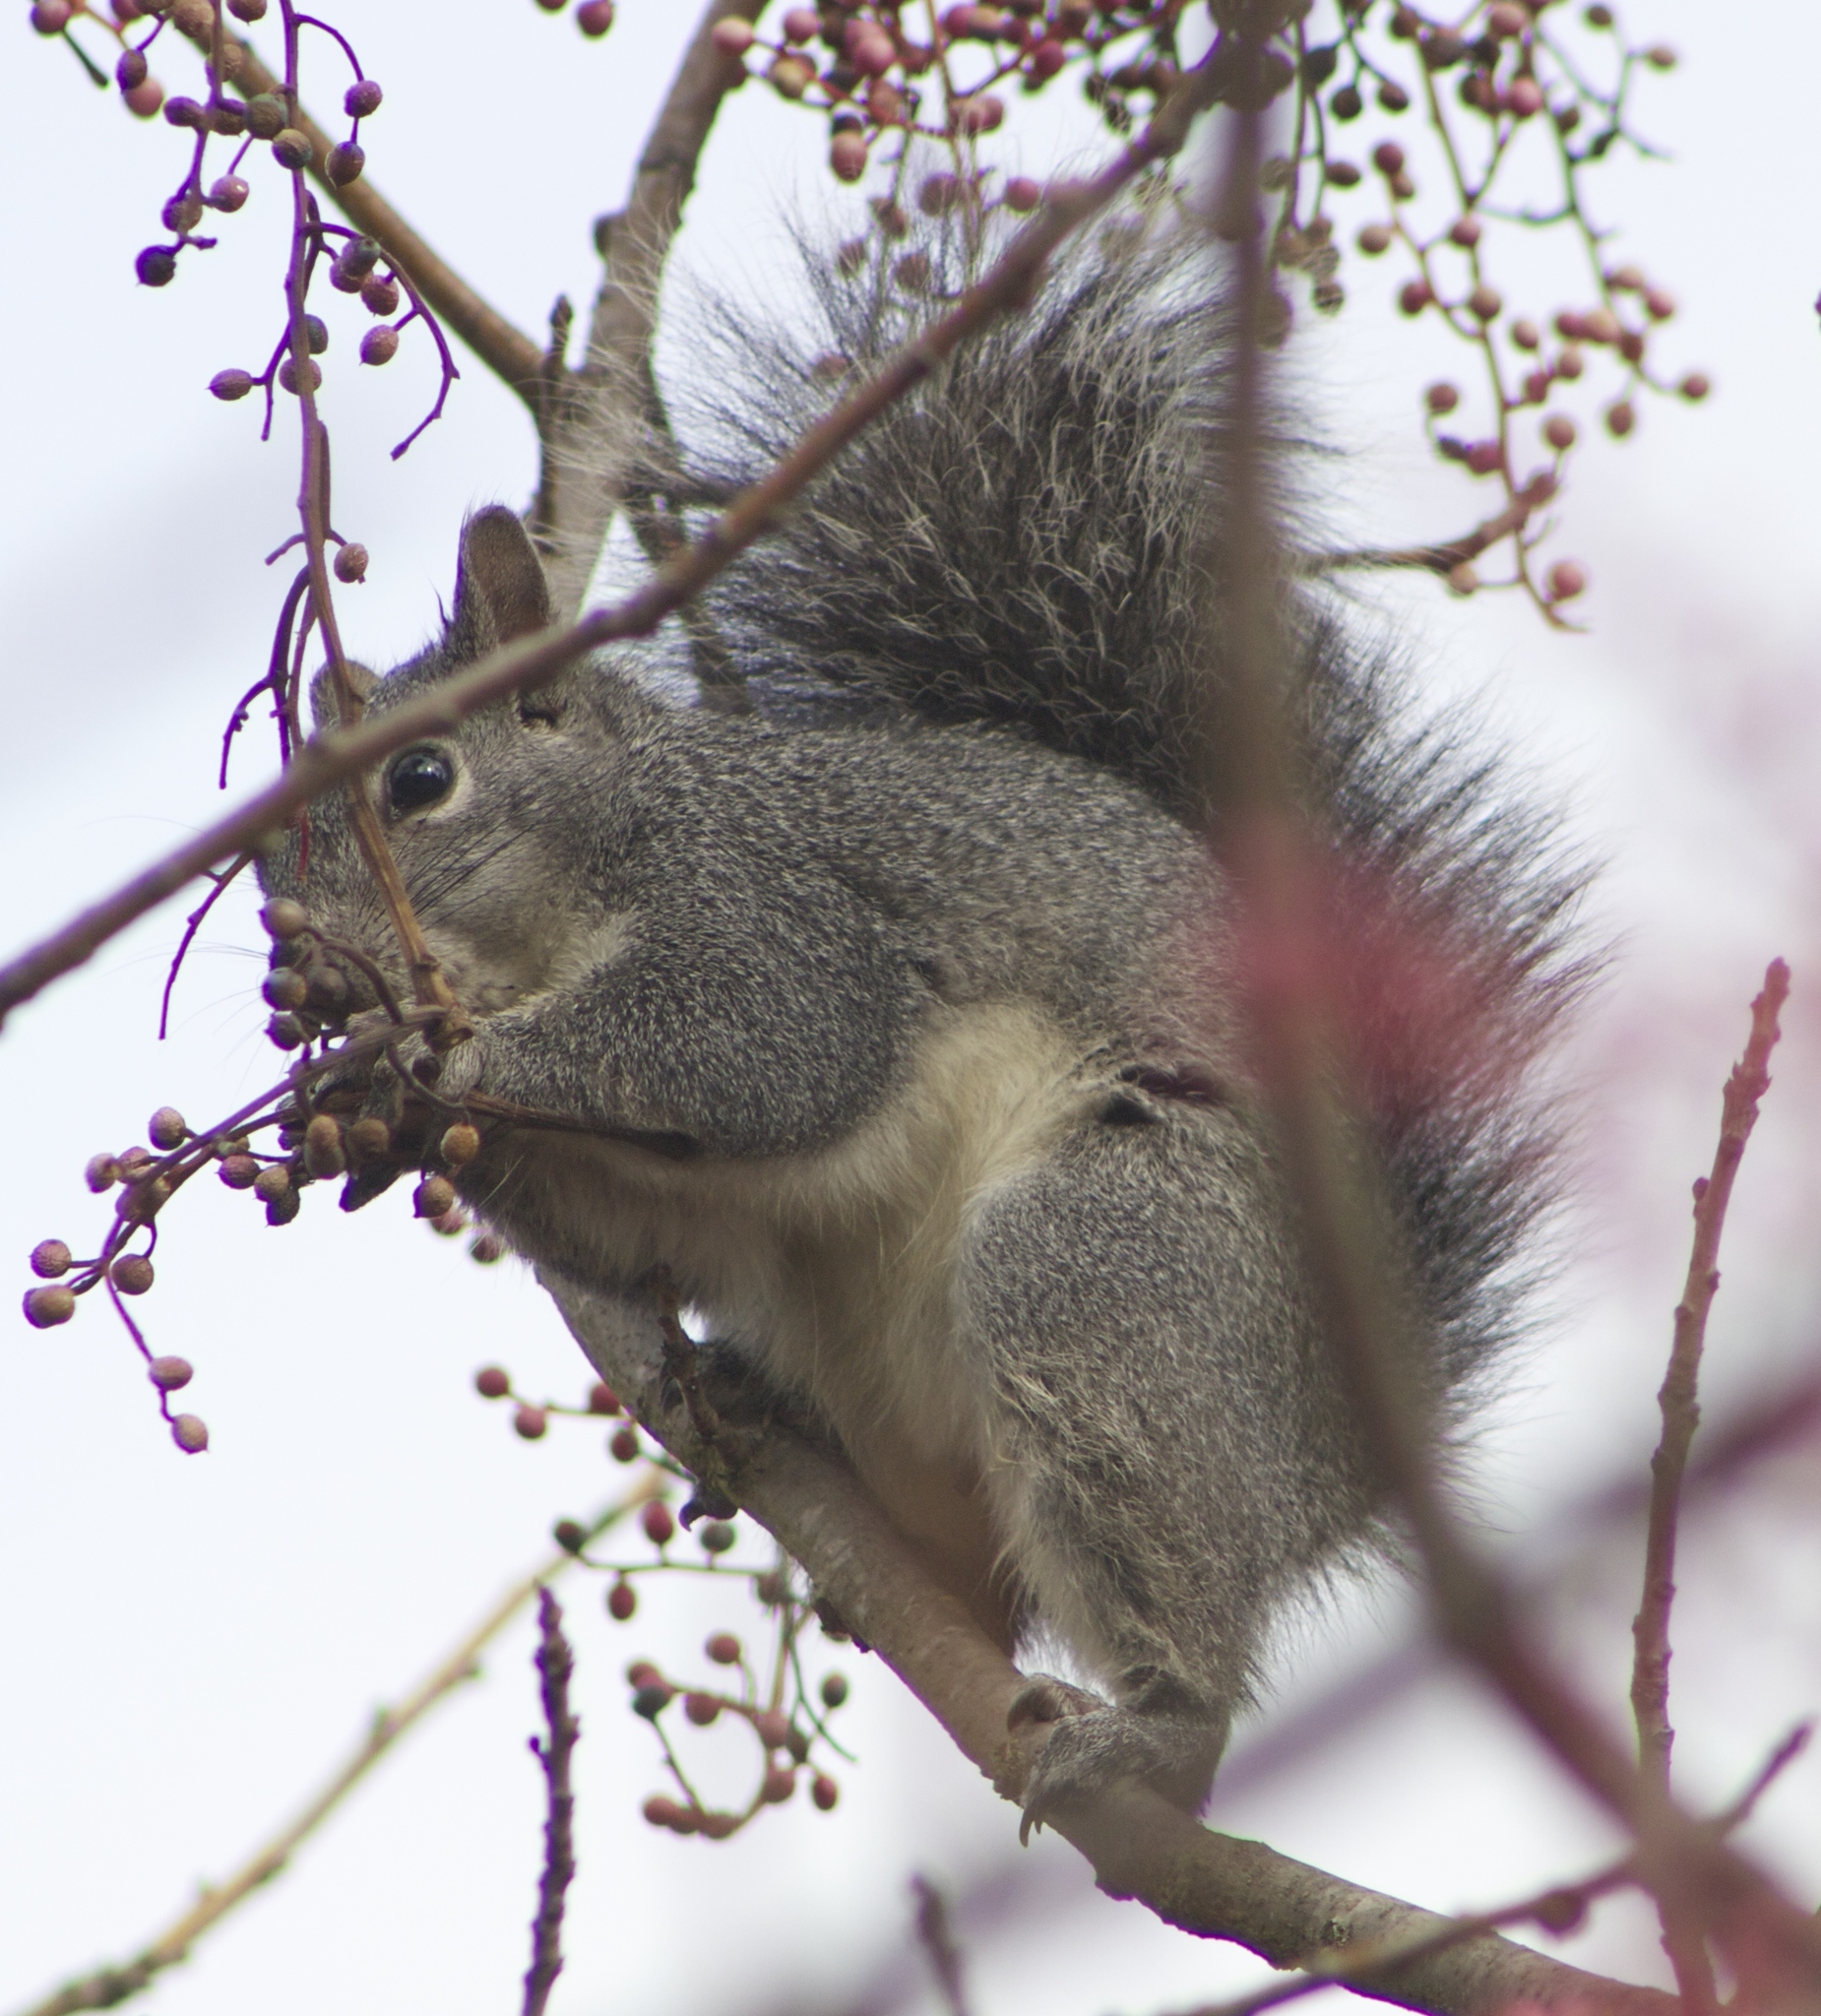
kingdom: Animalia
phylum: Chordata
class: Mammalia
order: Rodentia
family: Sciuridae
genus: Sciurus
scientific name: Sciurus griseus
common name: Western gray squirrel
